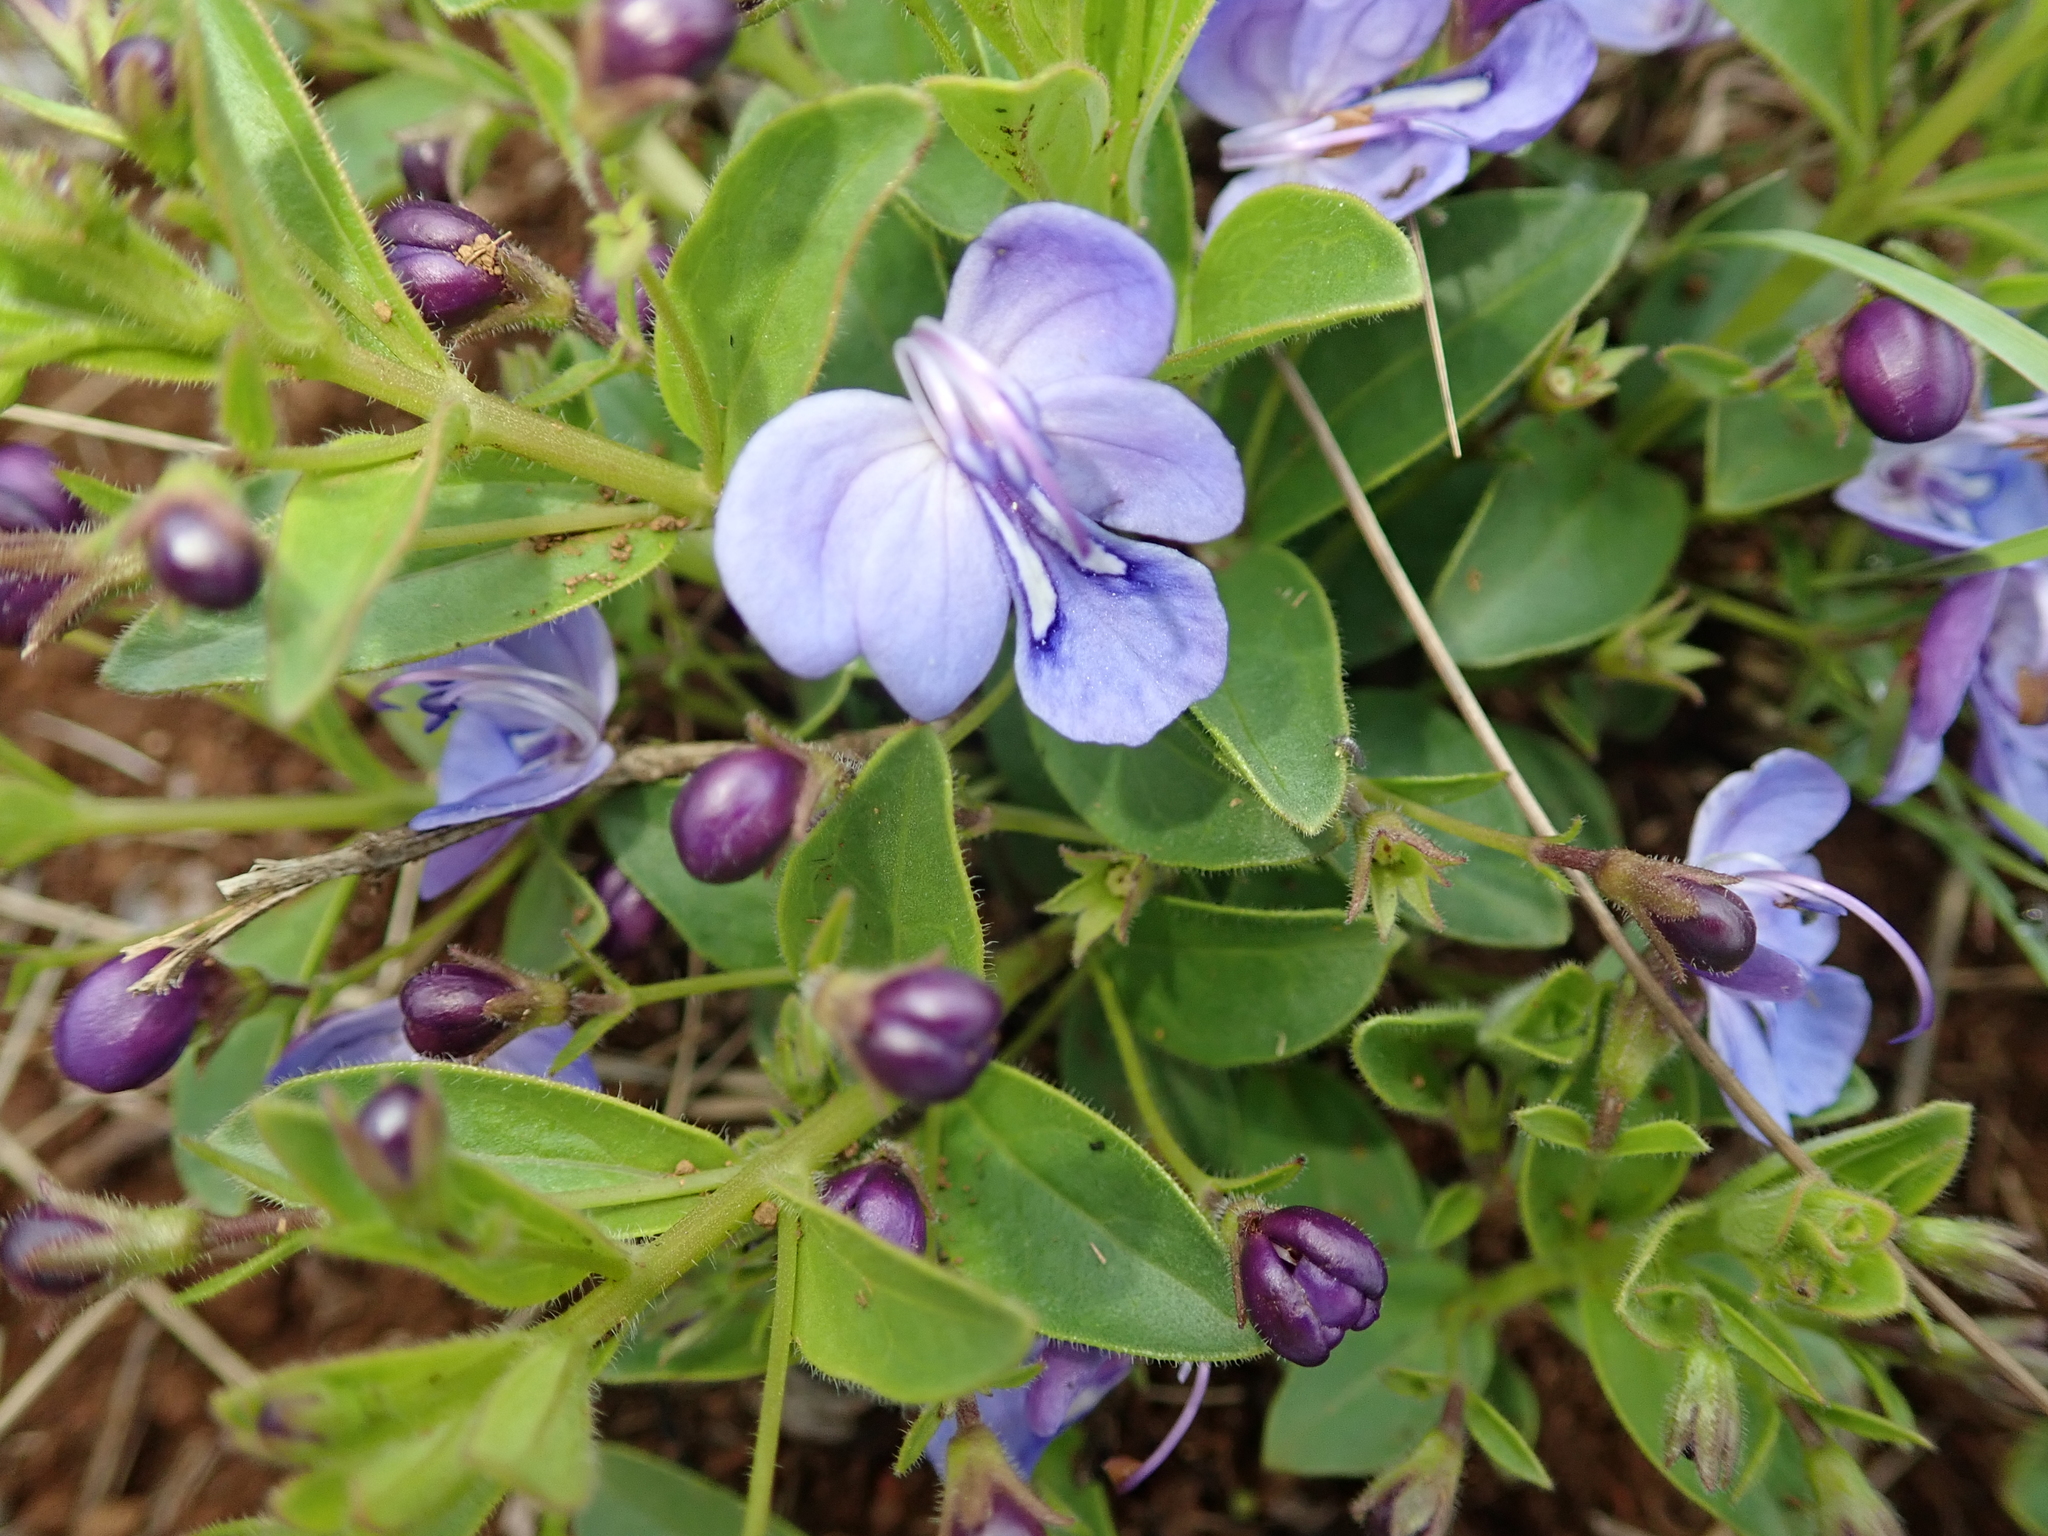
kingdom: Plantae
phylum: Tracheophyta
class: Magnoliopsida
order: Lamiales
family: Lamiaceae
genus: Rotheca
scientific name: Rotheca hirsuta
